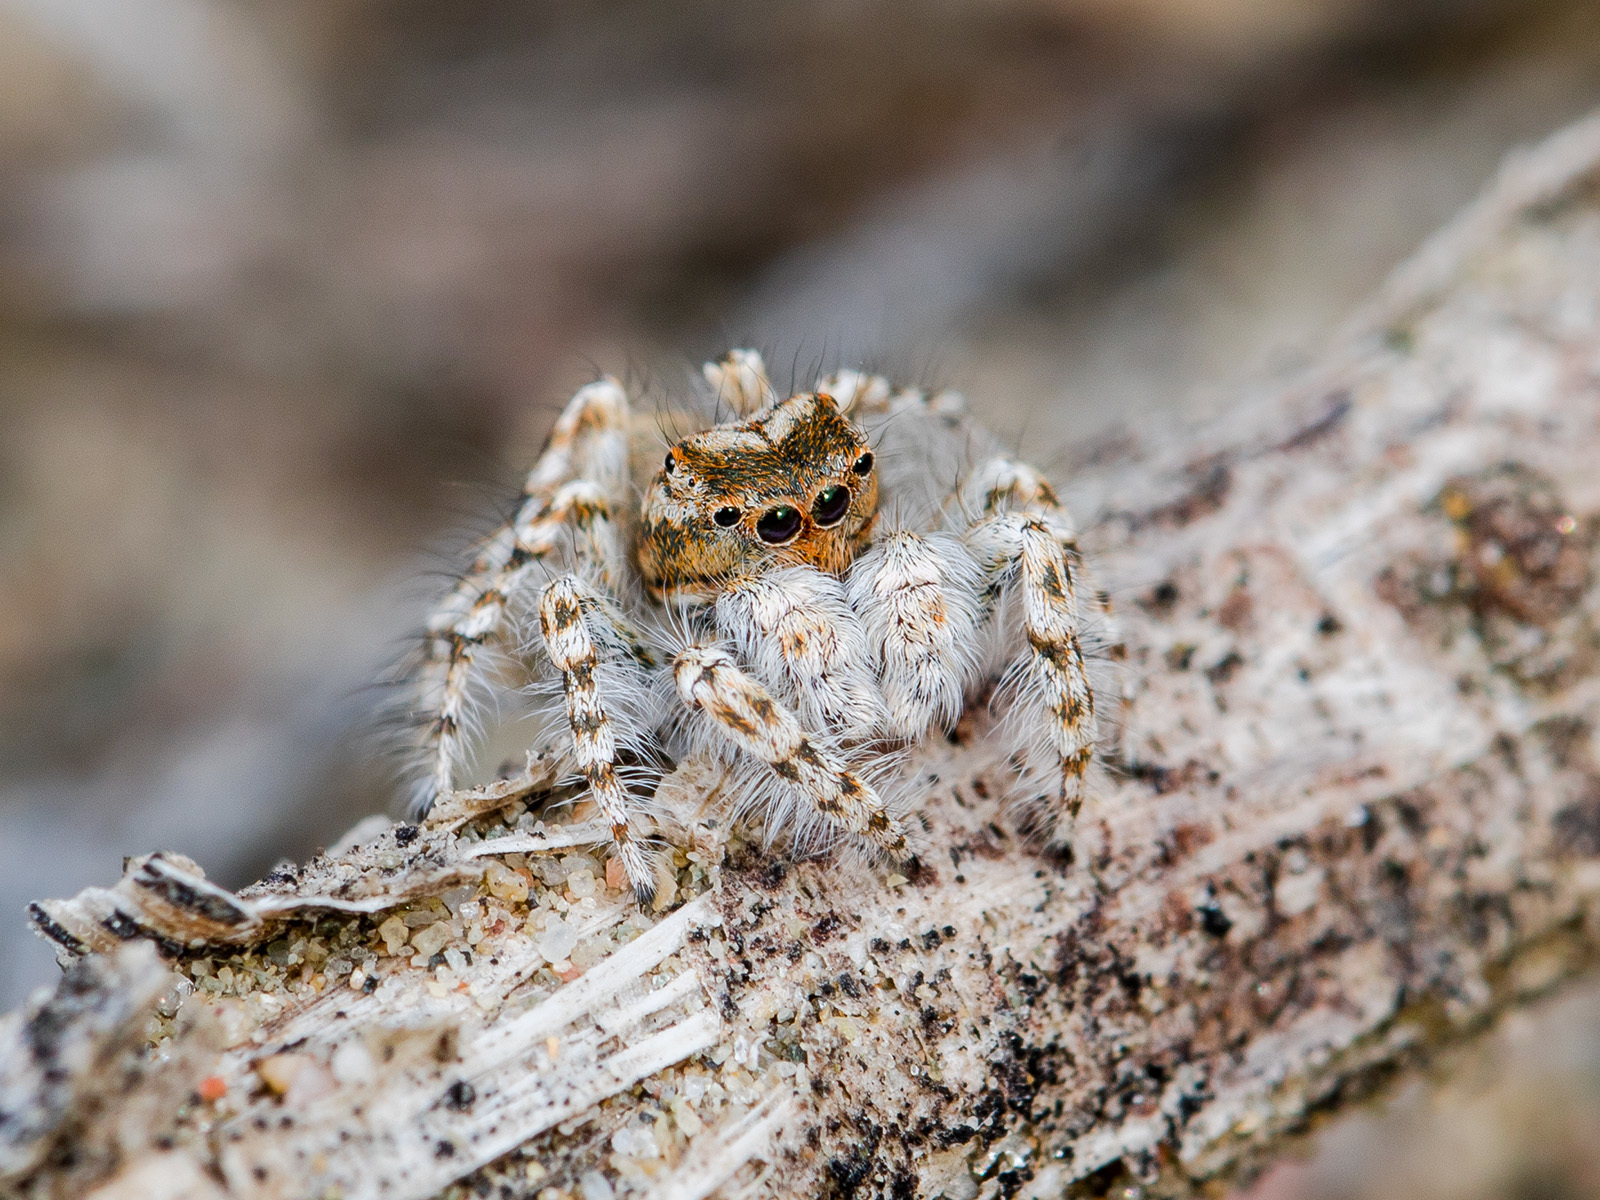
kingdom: Animalia
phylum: Arthropoda
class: Arachnida
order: Araneae
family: Salticidae
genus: Yllenus
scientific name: Yllenus uiguricus
